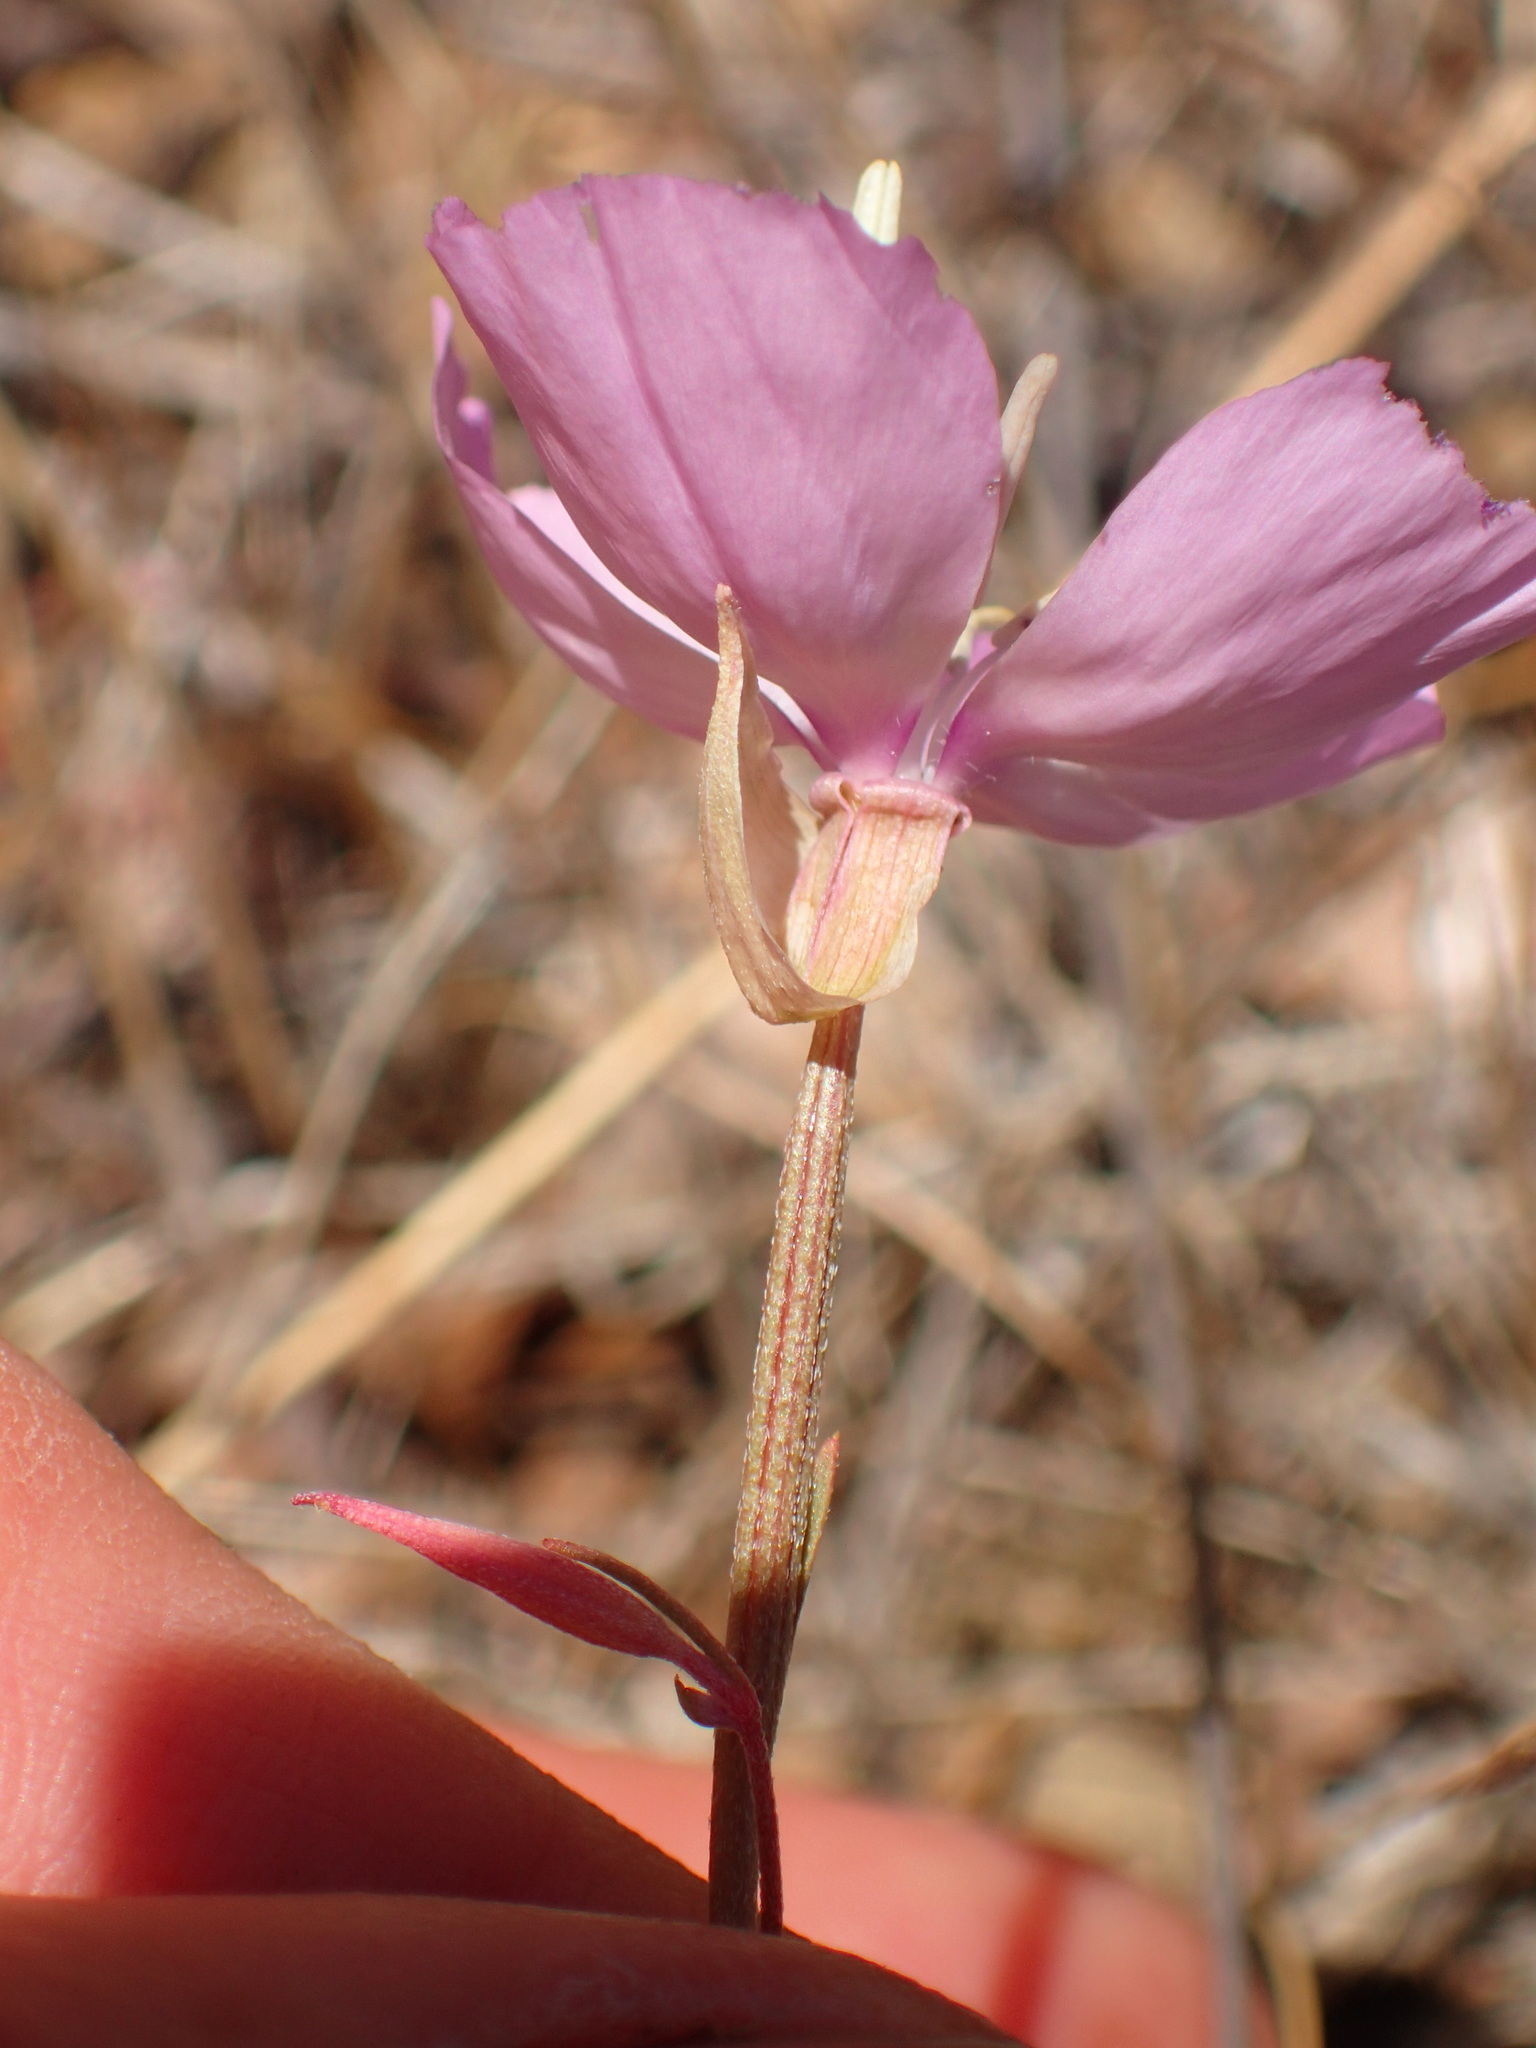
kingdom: Plantae
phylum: Tracheophyta
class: Magnoliopsida
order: Myrtales
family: Onagraceae
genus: Clarkia
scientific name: Clarkia bottae
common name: Punch-bowl godetia
